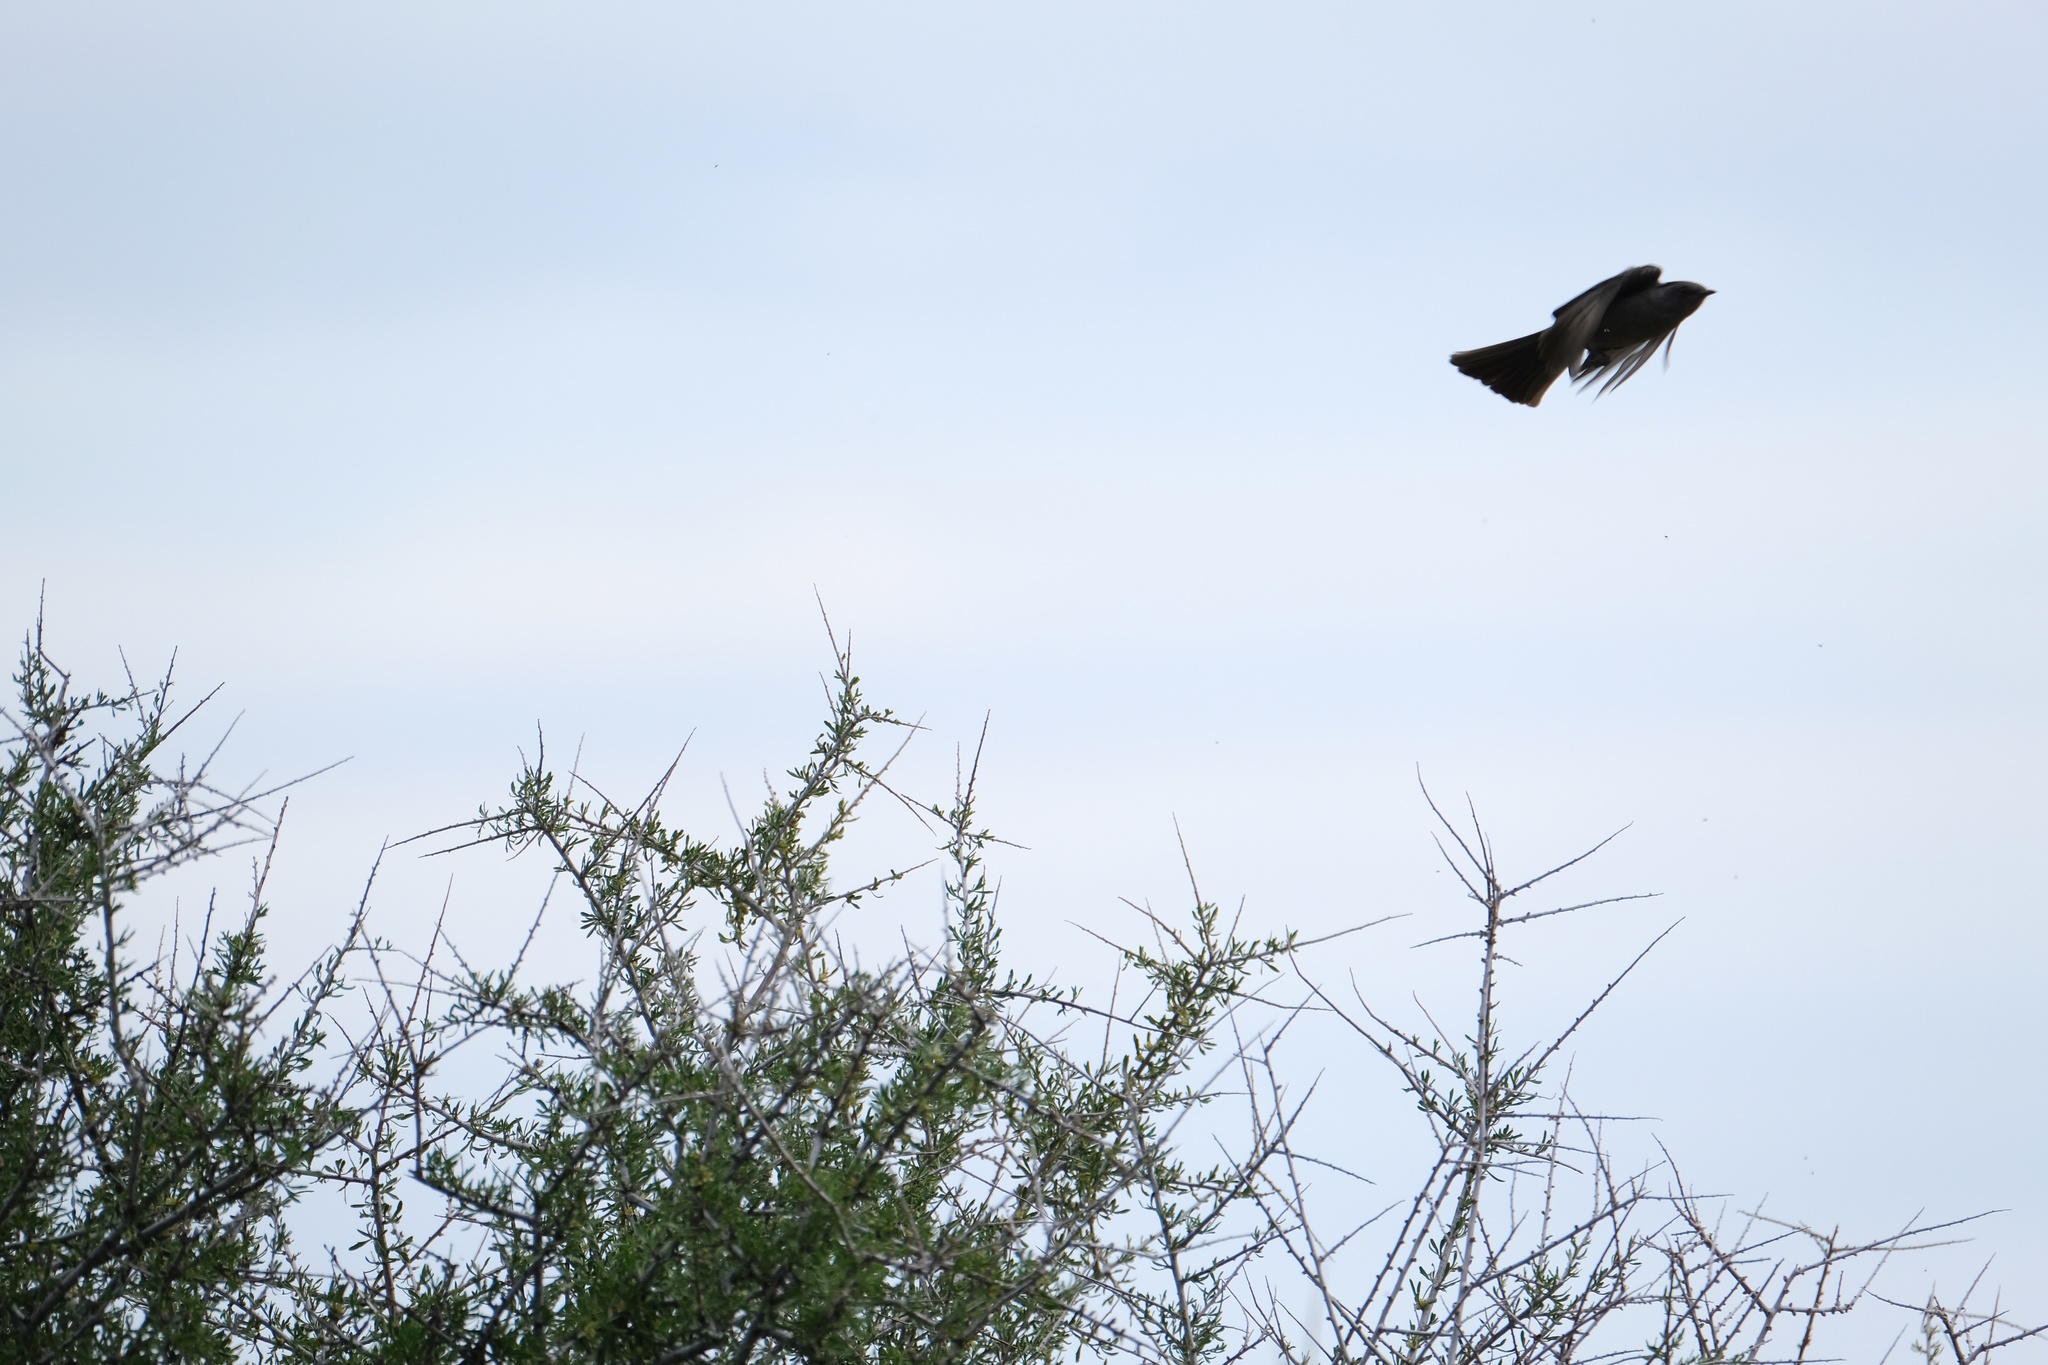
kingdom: Animalia
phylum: Chordata
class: Aves
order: Passeriformes
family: Ptilogonatidae
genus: Phainopepla
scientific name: Phainopepla nitens
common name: Phainopepla
